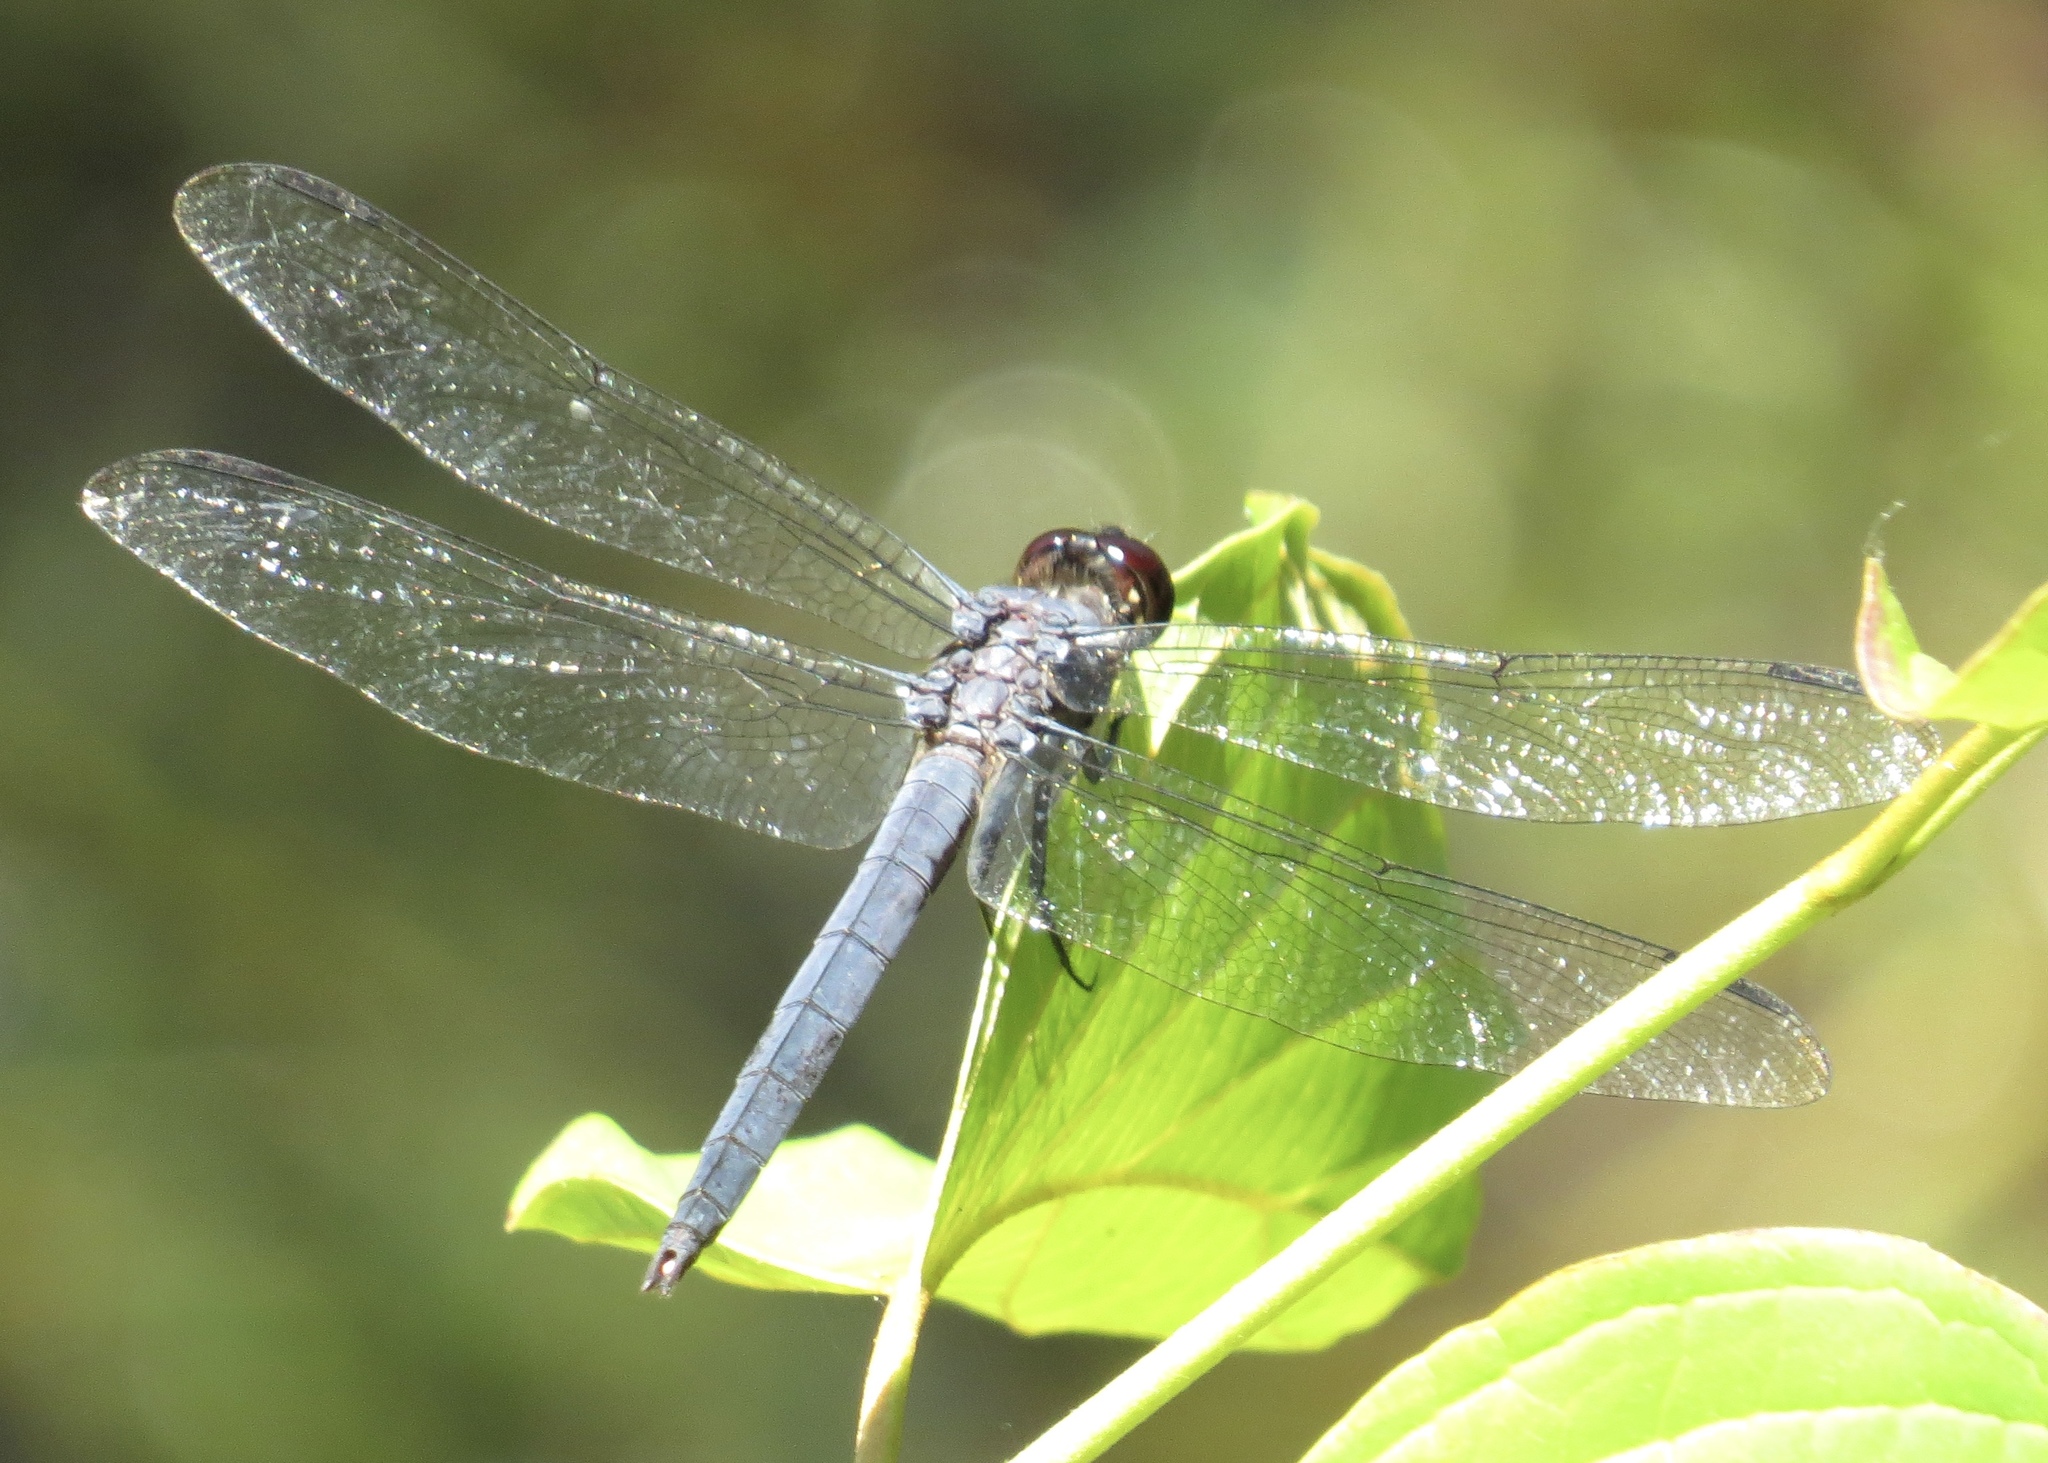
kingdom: Animalia
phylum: Arthropoda
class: Insecta
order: Odonata
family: Libellulidae
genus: Libellula
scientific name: Libellula incesta
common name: Slaty skimmer
